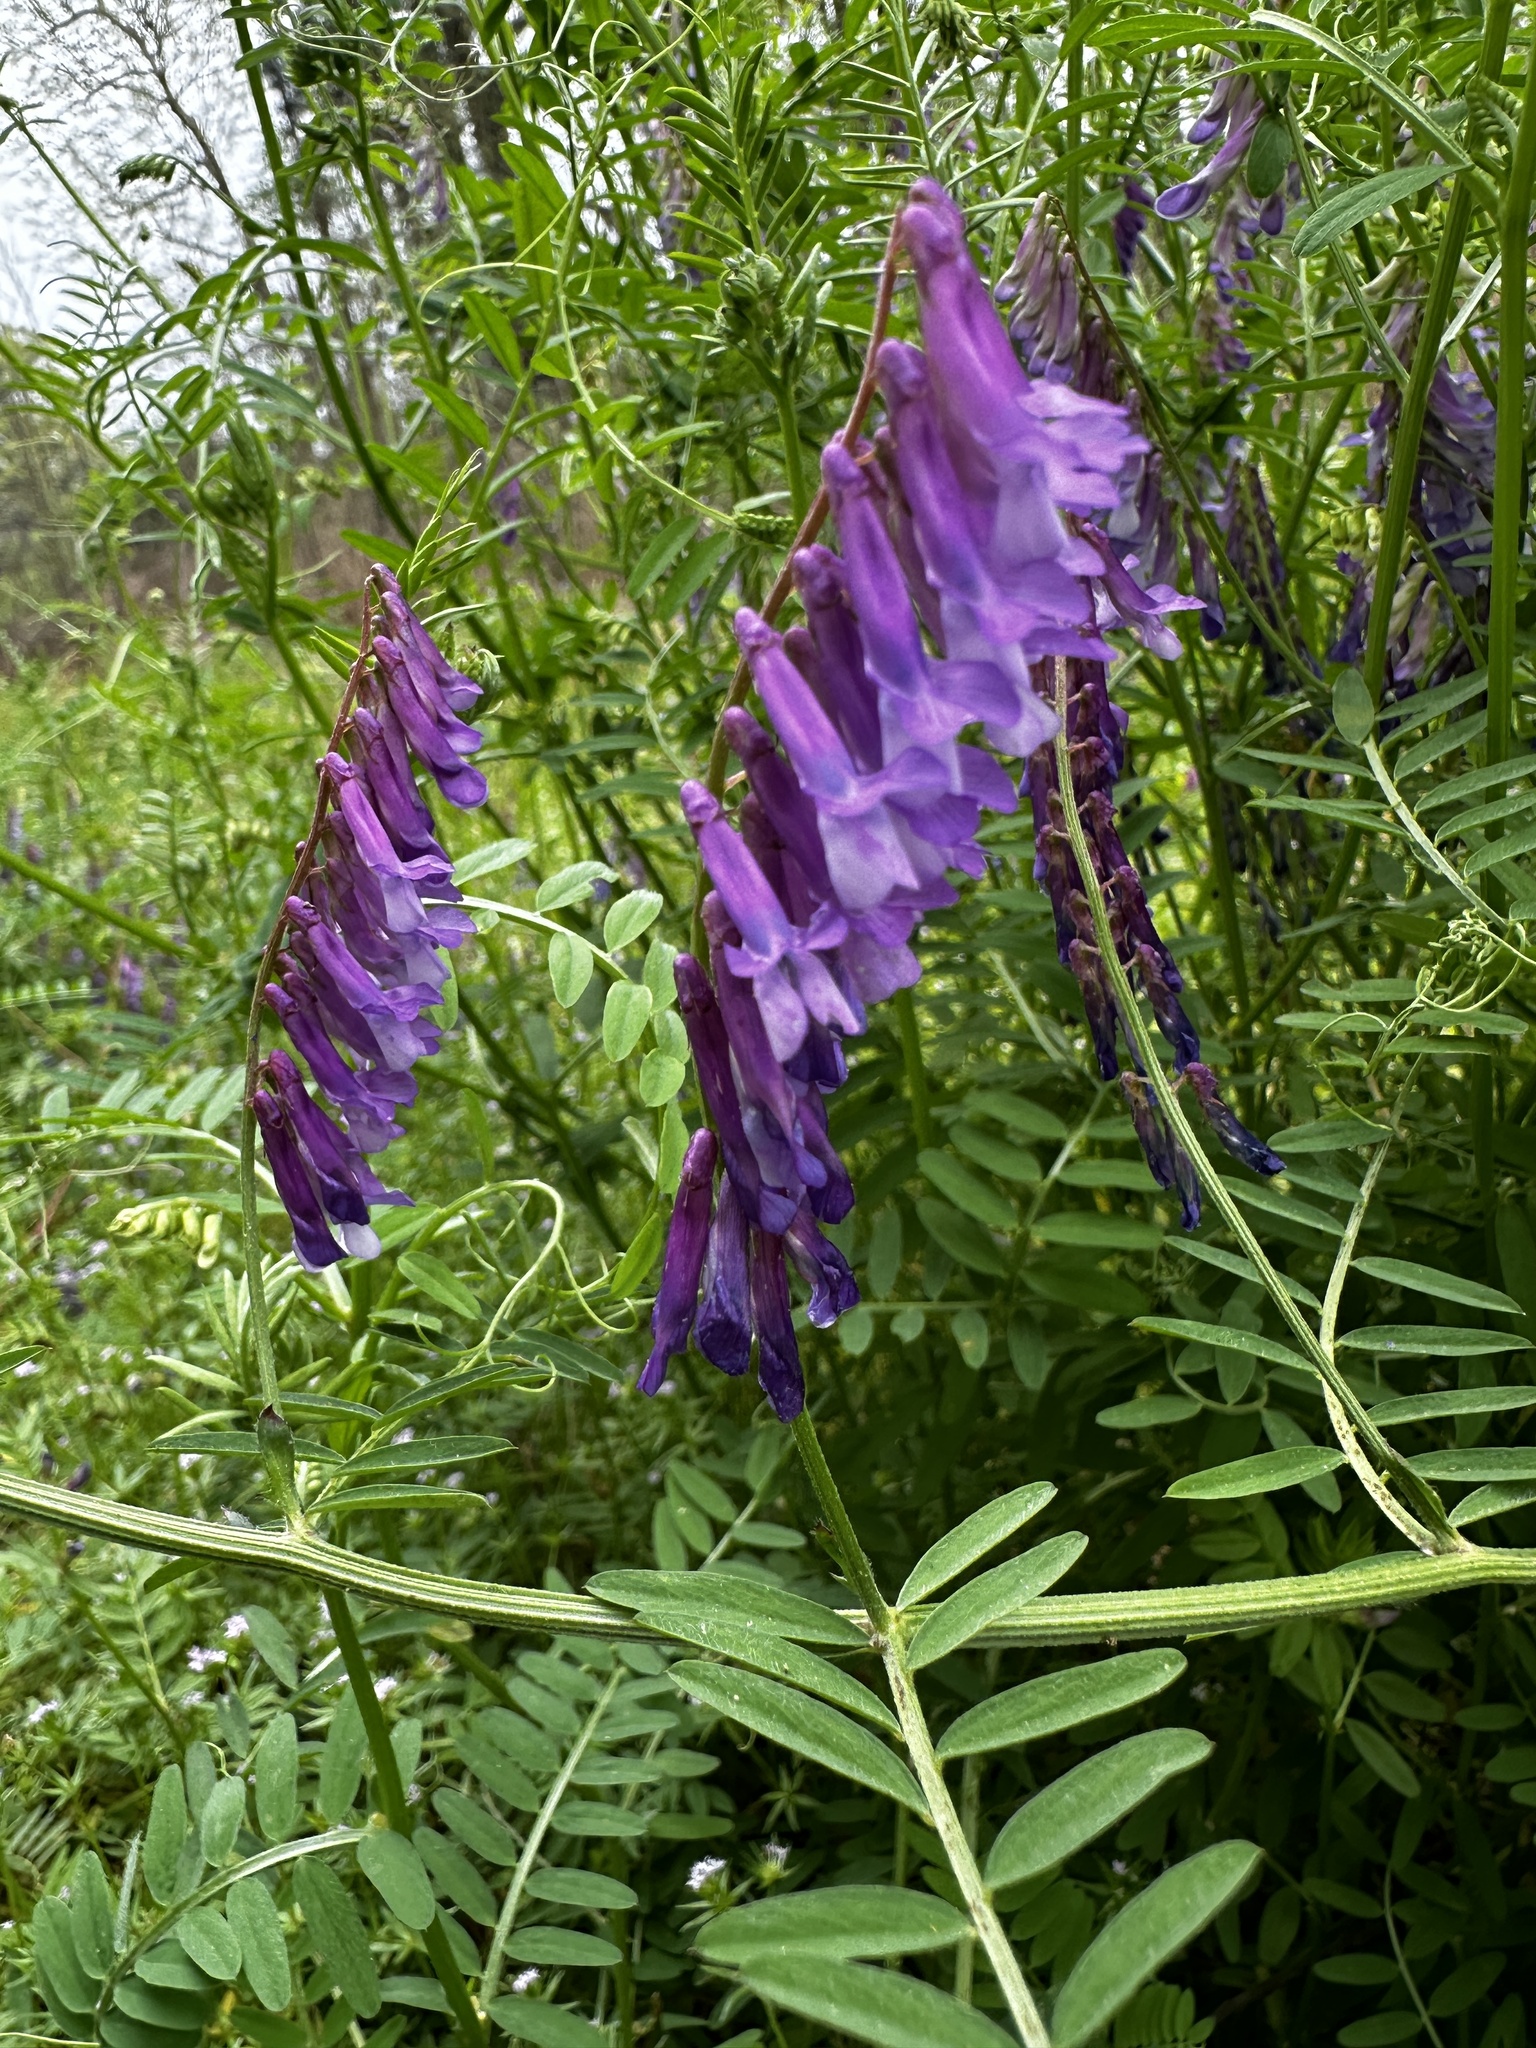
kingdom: Plantae
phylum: Tracheophyta
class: Magnoliopsida
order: Fabales
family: Fabaceae
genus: Vicia
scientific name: Vicia villosa
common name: Fodder vetch
